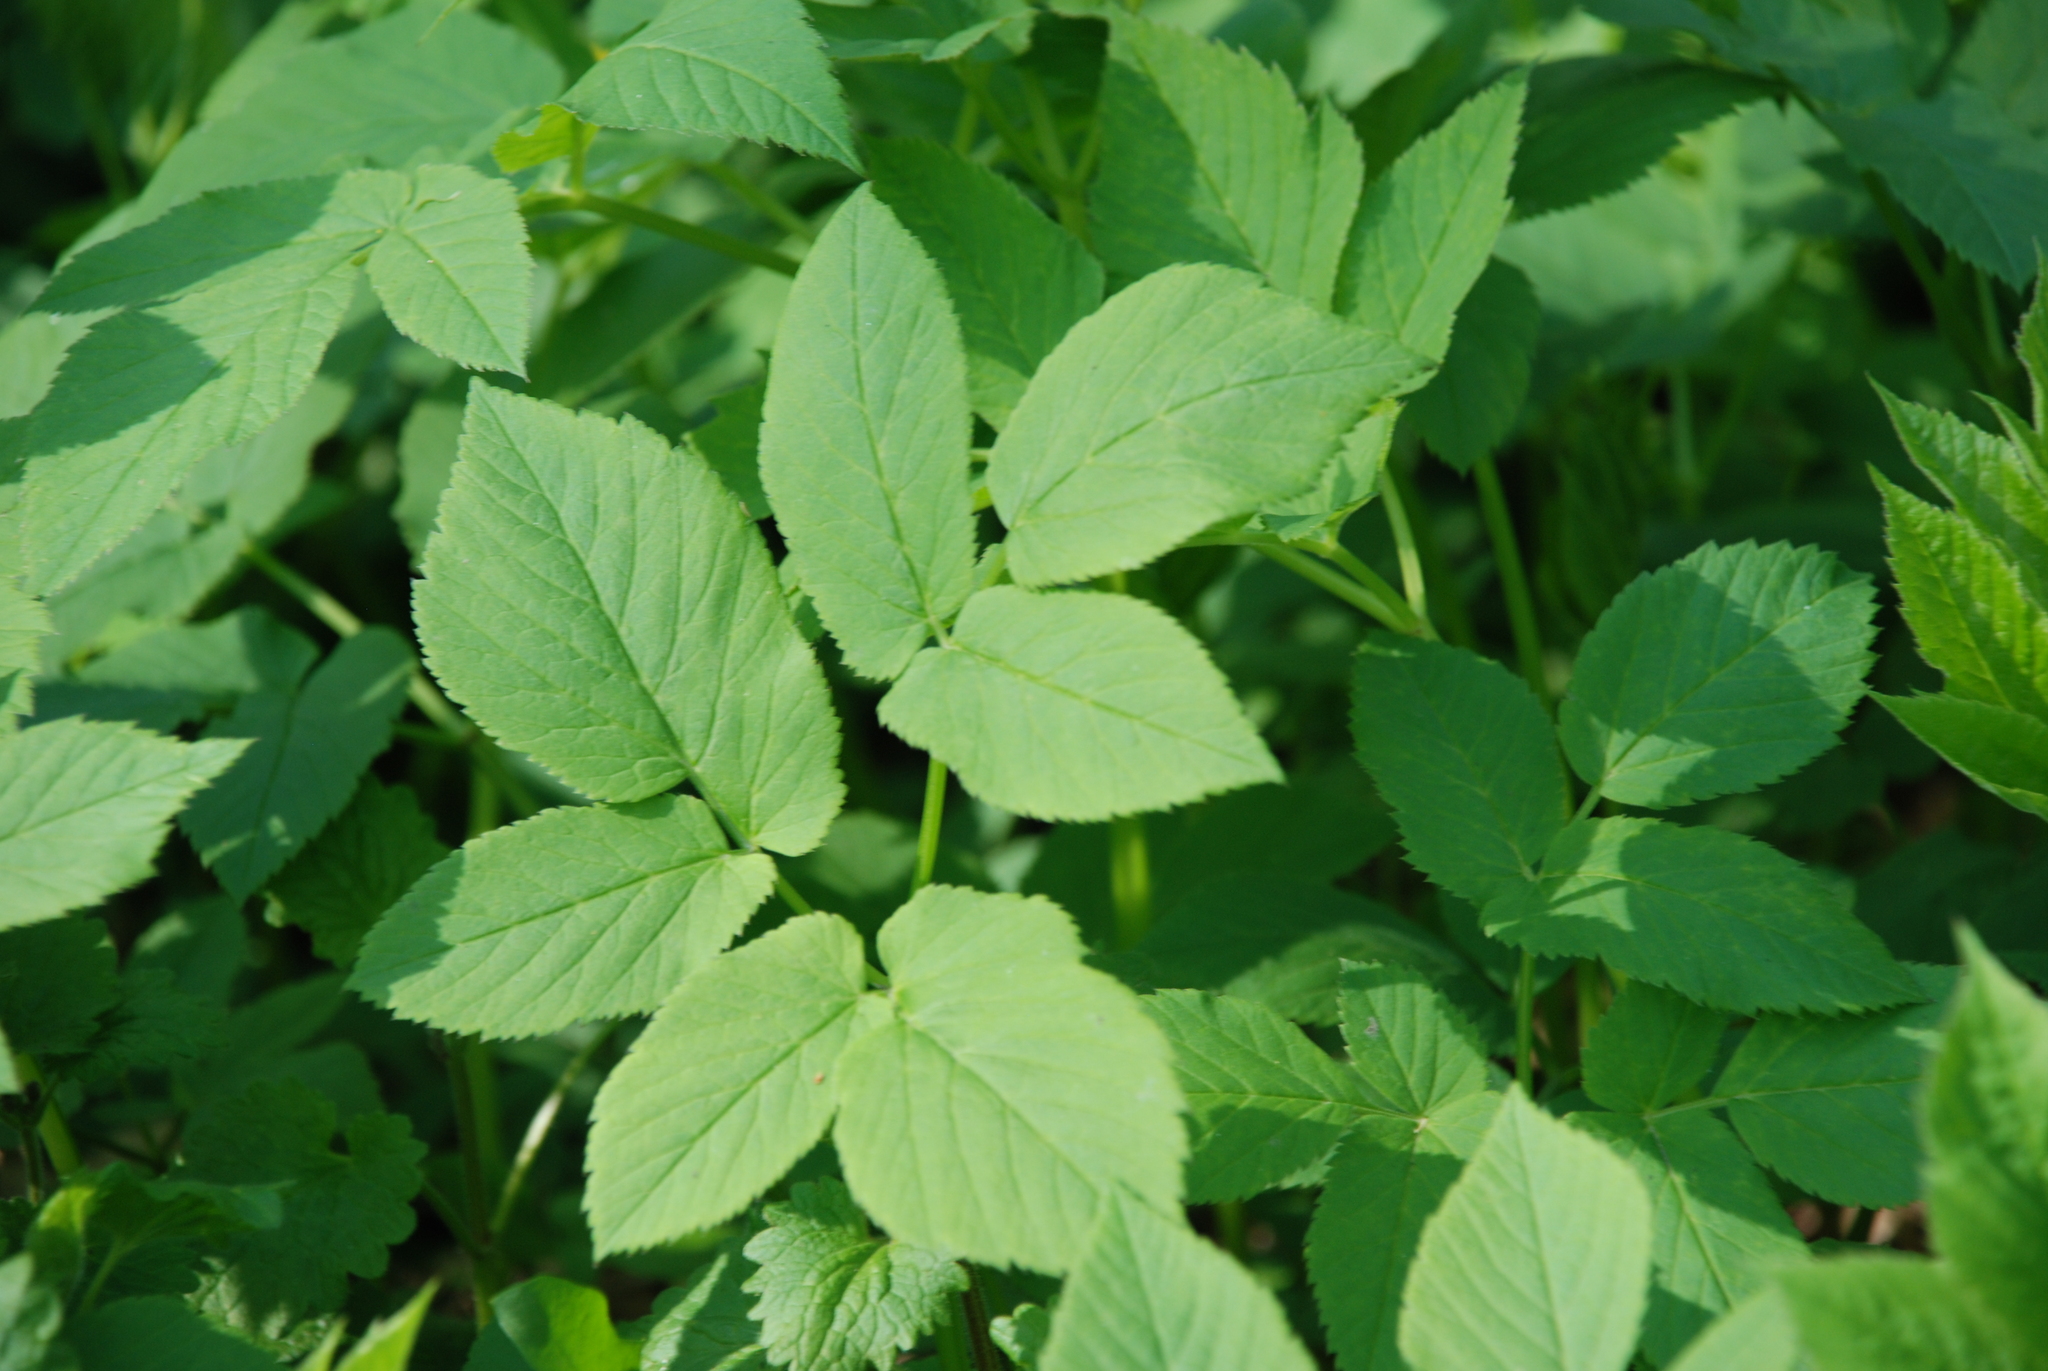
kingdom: Plantae
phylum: Tracheophyta
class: Magnoliopsida
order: Apiales
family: Apiaceae
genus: Aegopodium
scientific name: Aegopodium podagraria
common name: Ground-elder
